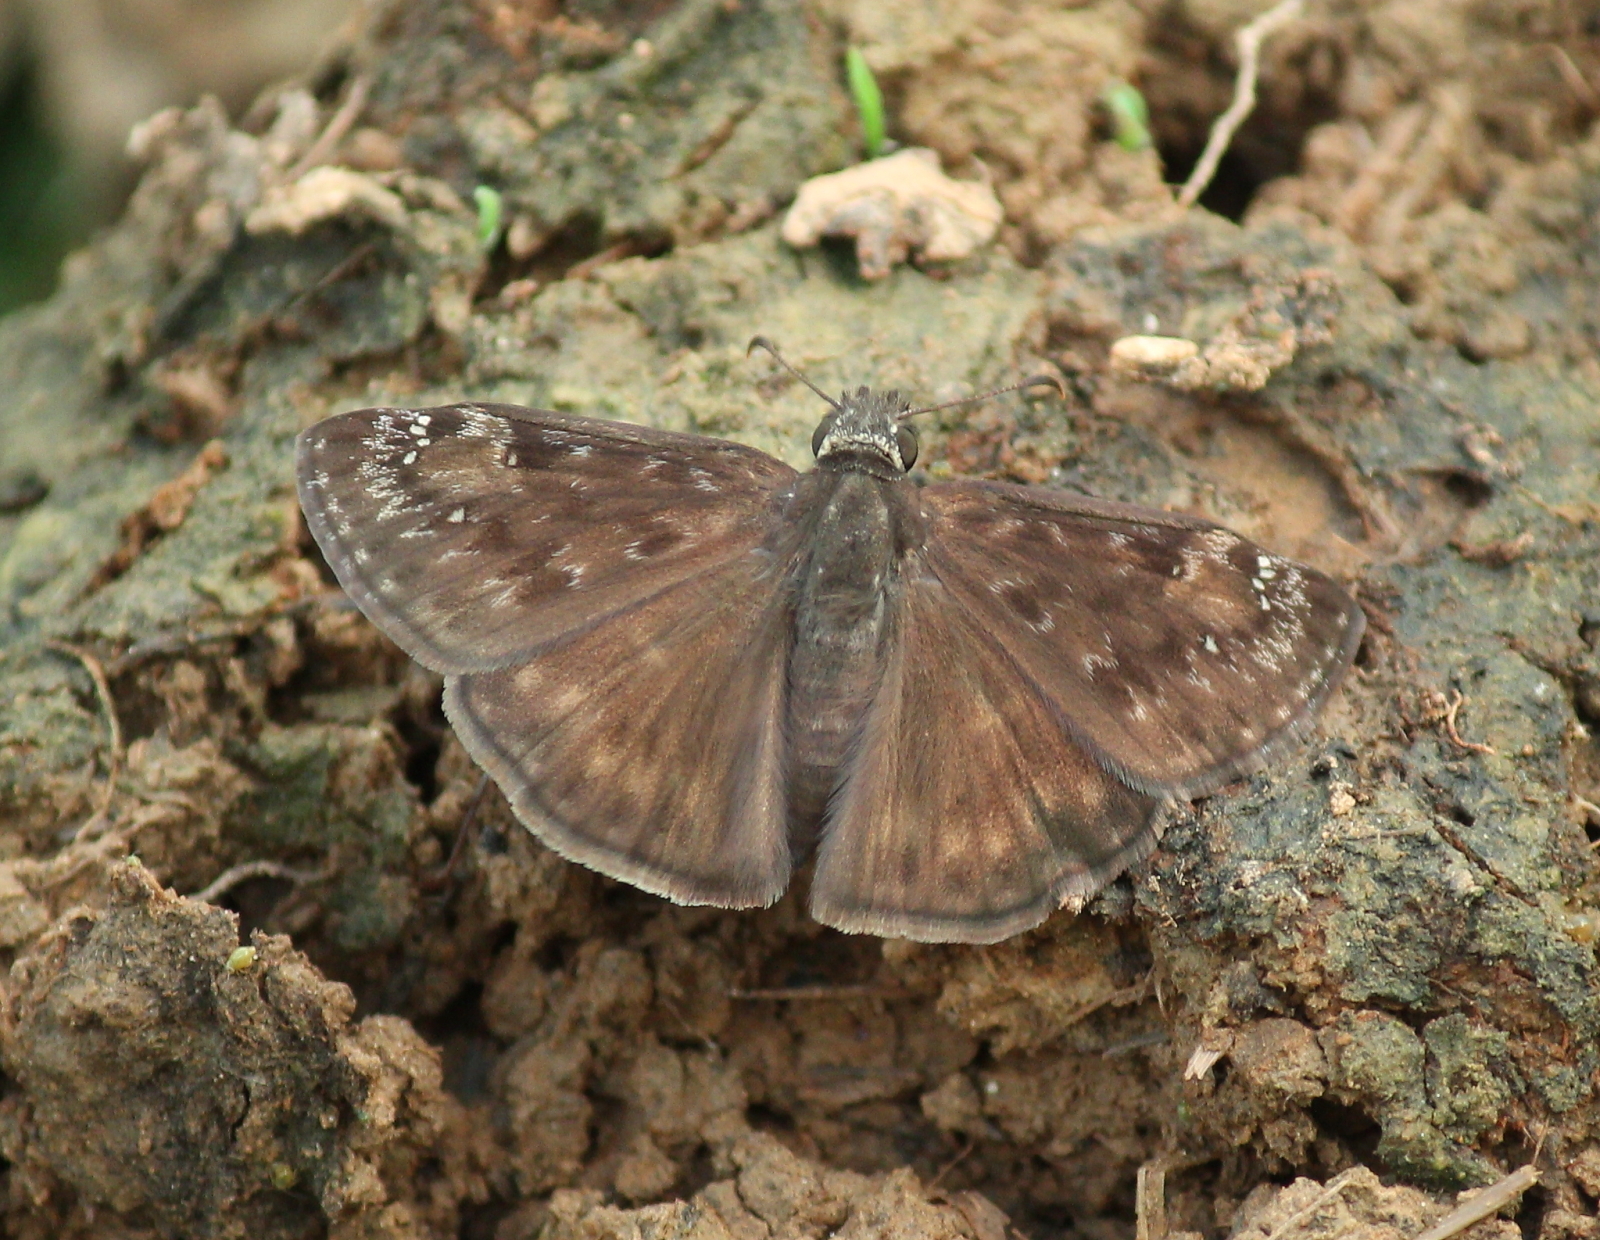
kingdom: Animalia
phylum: Arthropoda
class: Insecta
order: Lepidoptera
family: Hesperiidae
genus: Erynnis
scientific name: Erynnis horatius
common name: Horace's duskywing
